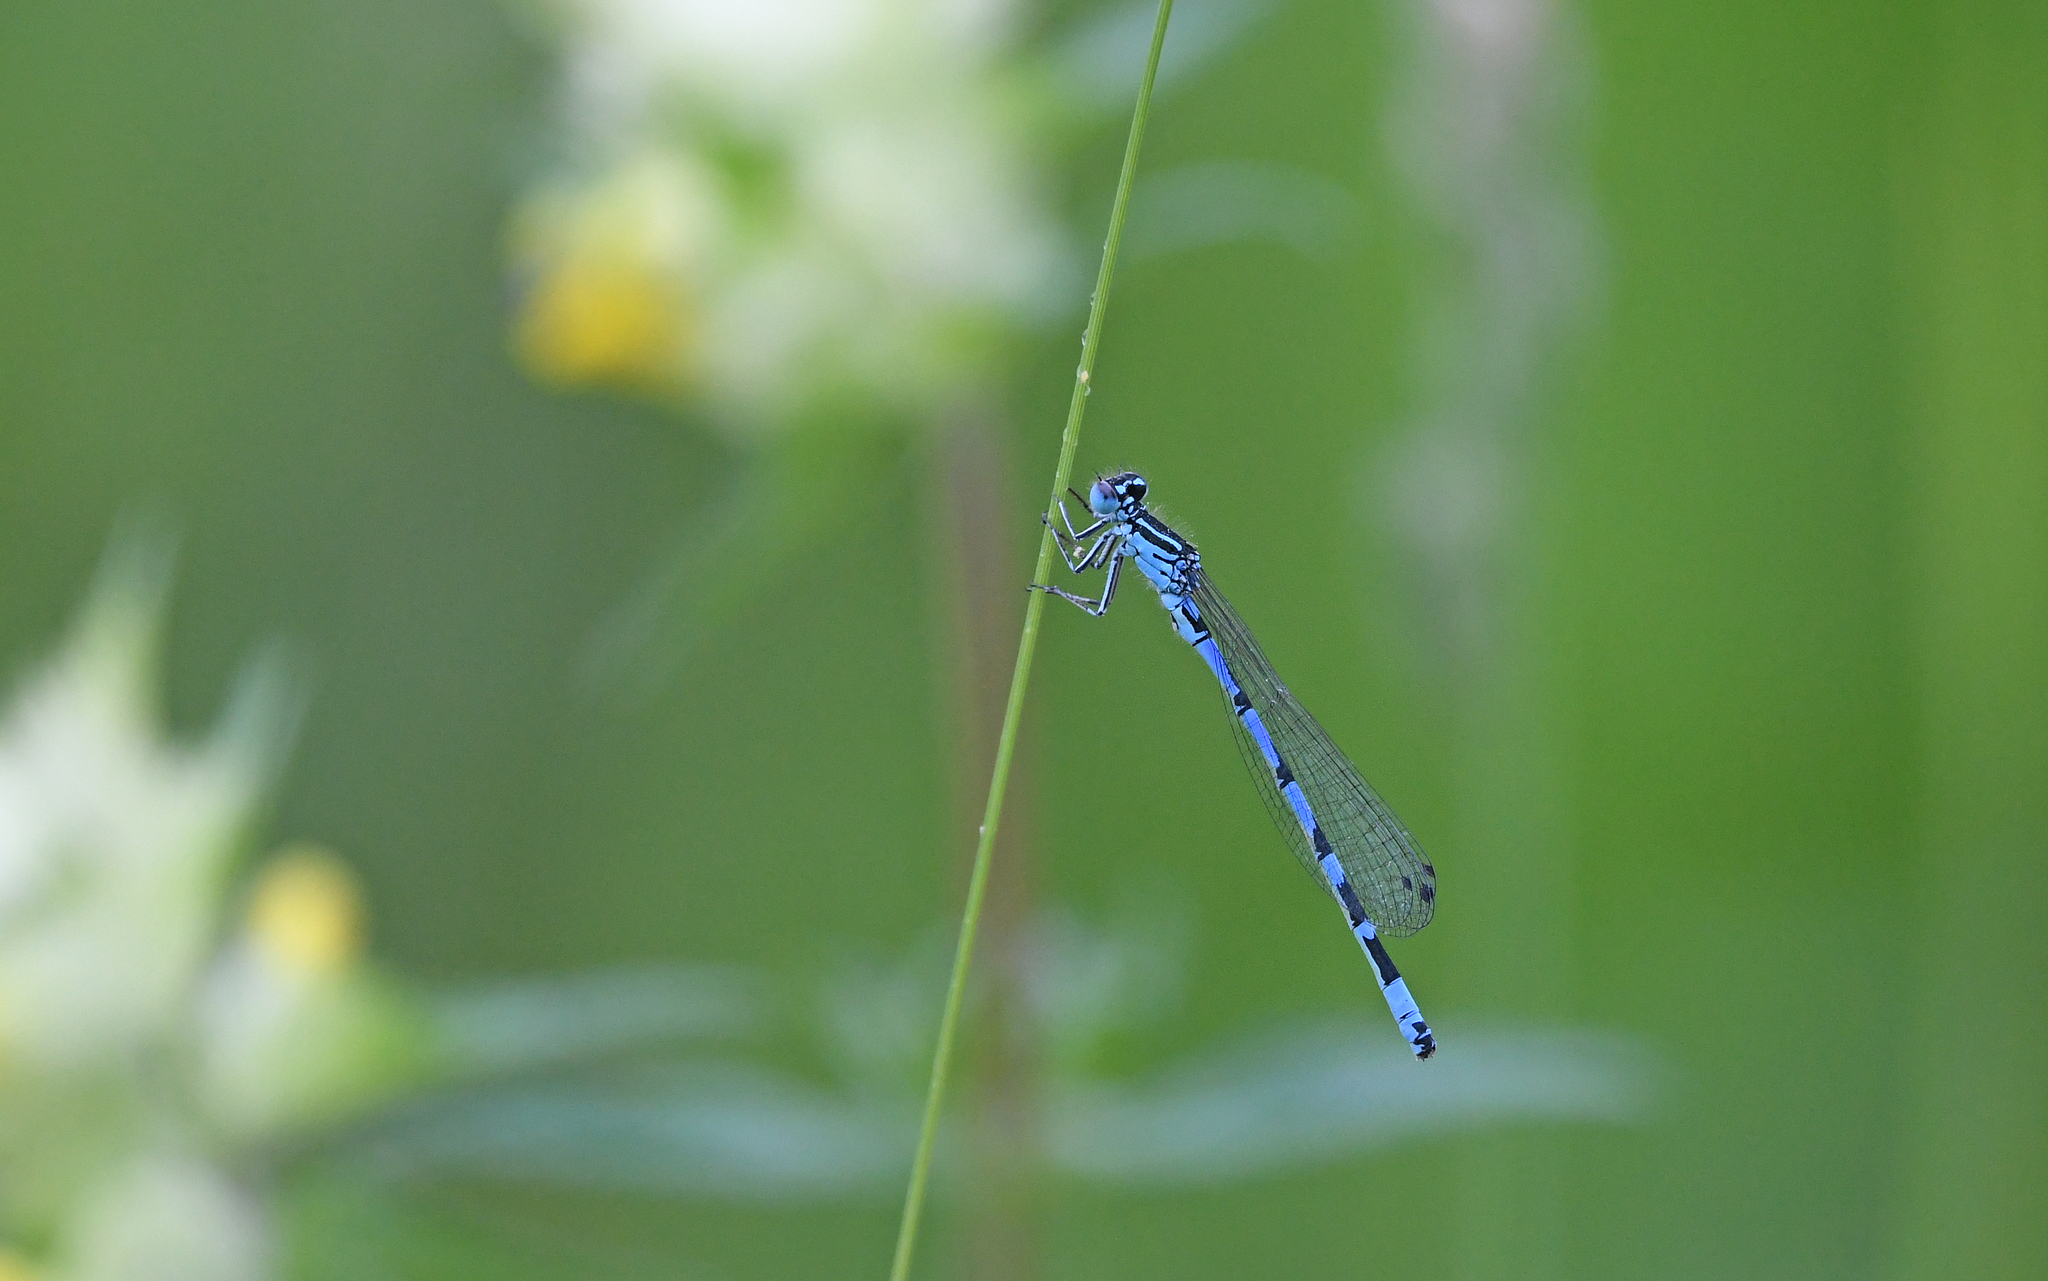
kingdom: Animalia
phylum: Arthropoda
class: Insecta
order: Odonata
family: Coenagrionidae
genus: Coenagrion
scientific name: Coenagrion ornatum
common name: Ornate bluet
